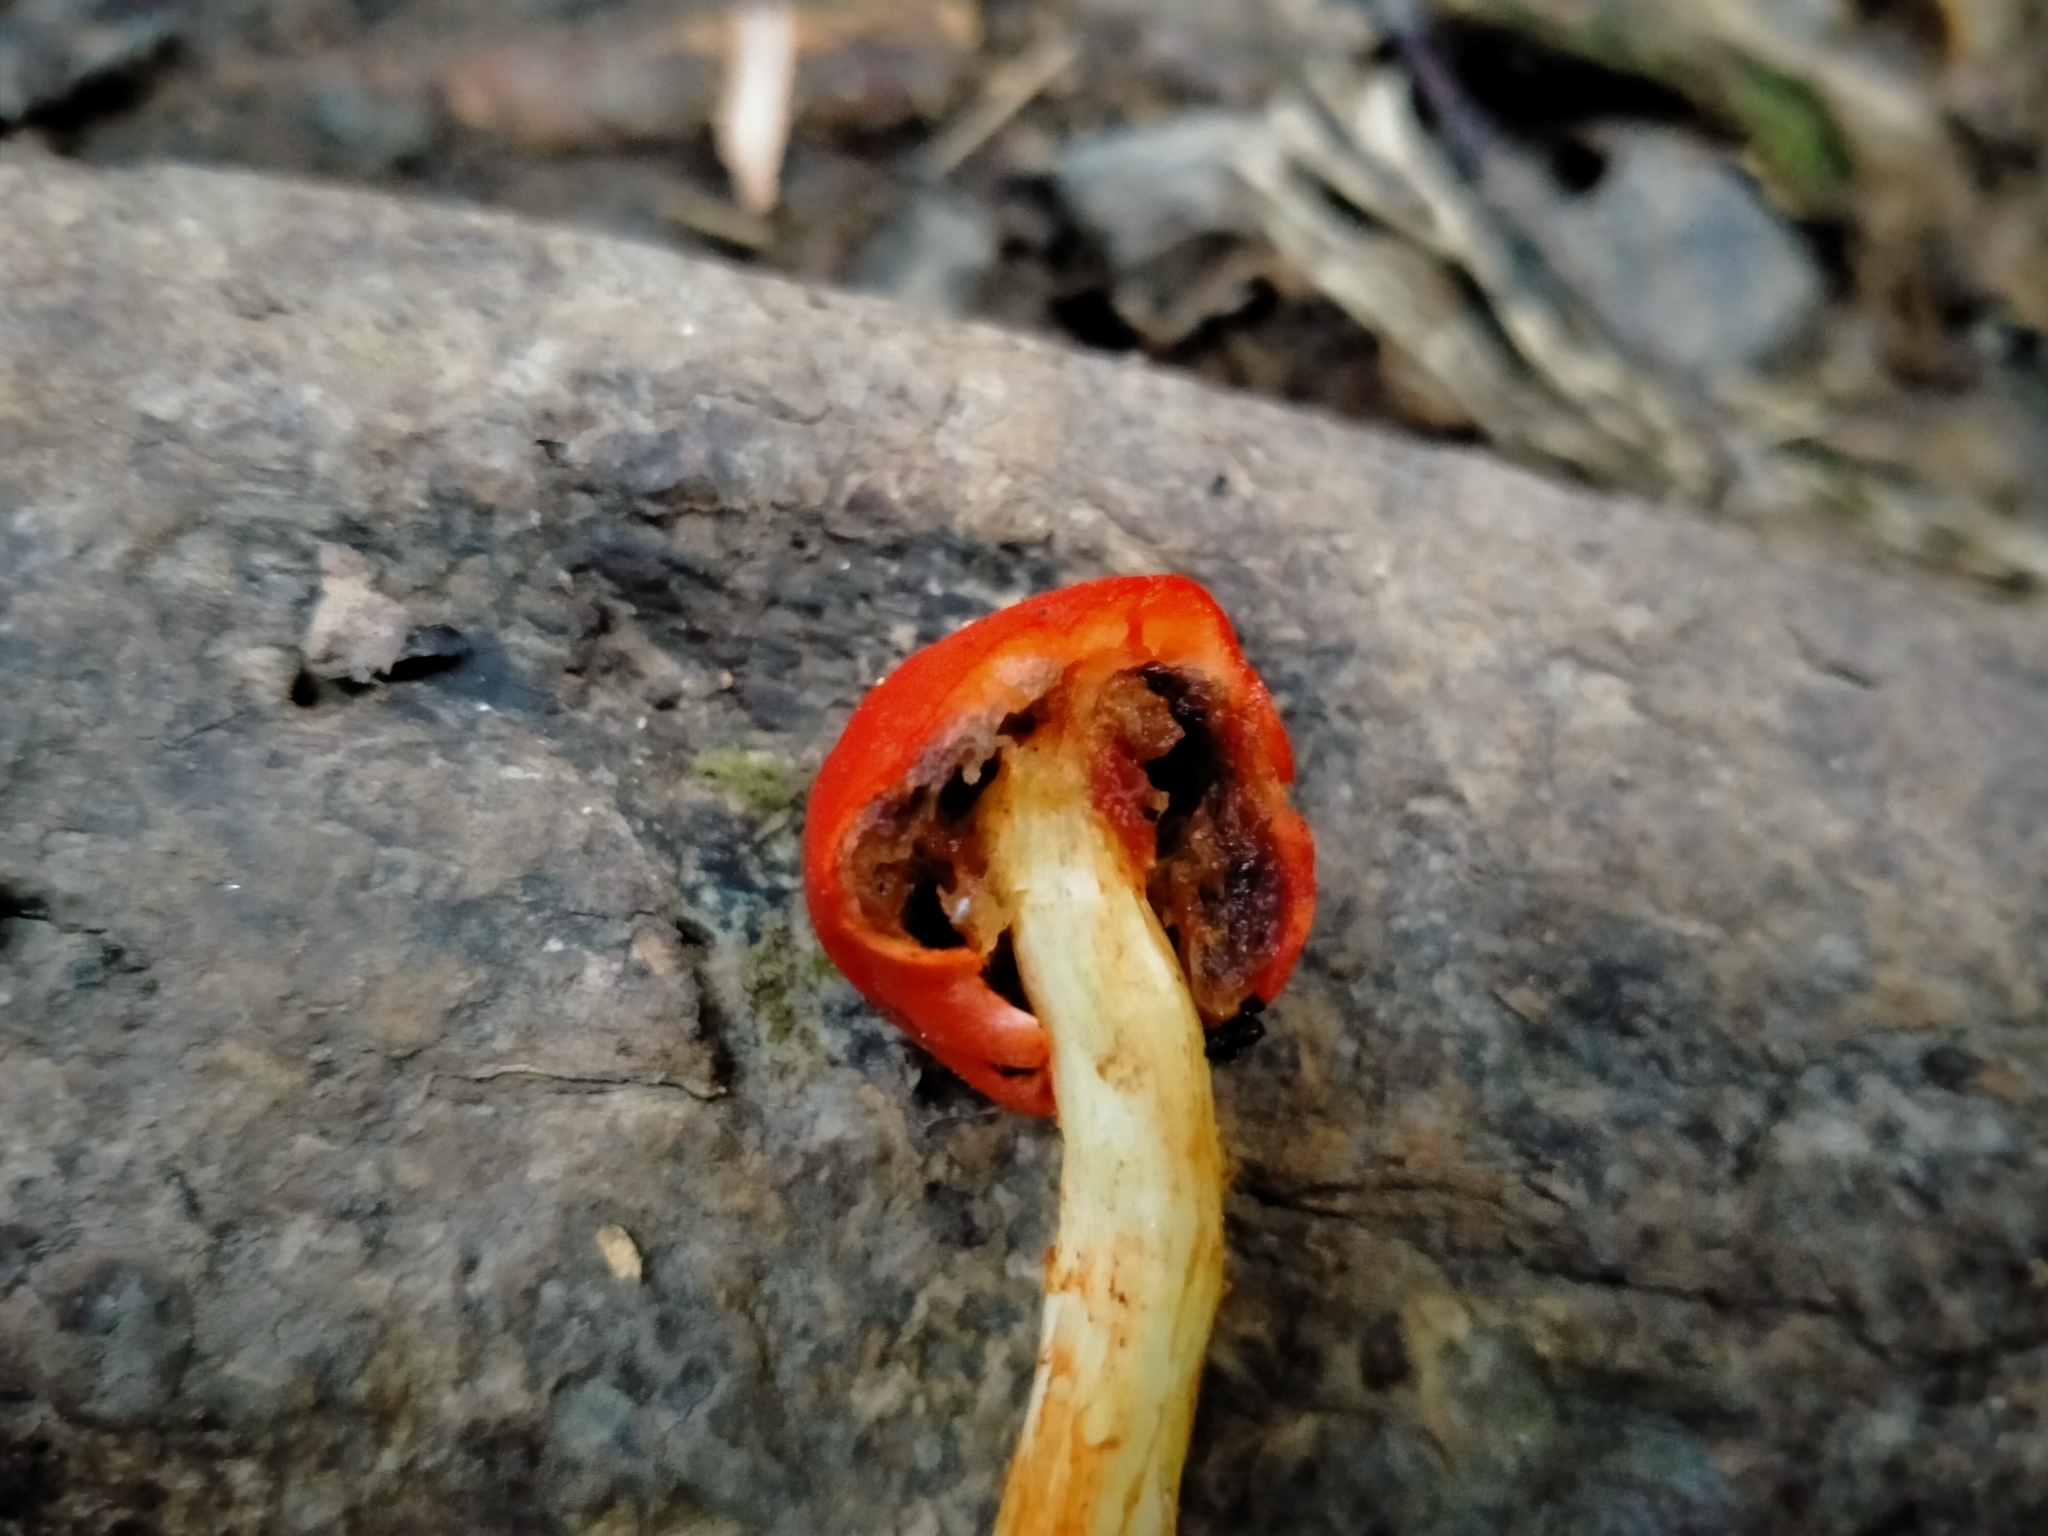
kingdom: Fungi
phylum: Basidiomycota
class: Agaricomycetes
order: Agaricales
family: Strophariaceae
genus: Leratiomyces
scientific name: Leratiomyces erythrocephalus
